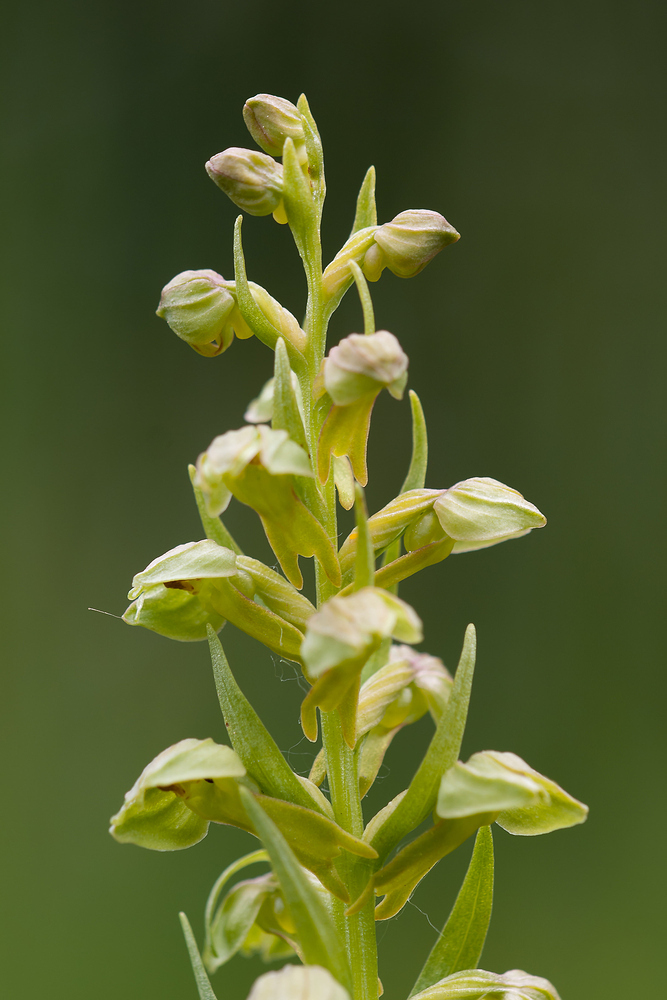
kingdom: Plantae
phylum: Tracheophyta
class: Liliopsida
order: Asparagales
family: Orchidaceae
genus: Dactylorhiza
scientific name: Dactylorhiza viridis
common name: Longbract frog orchid
